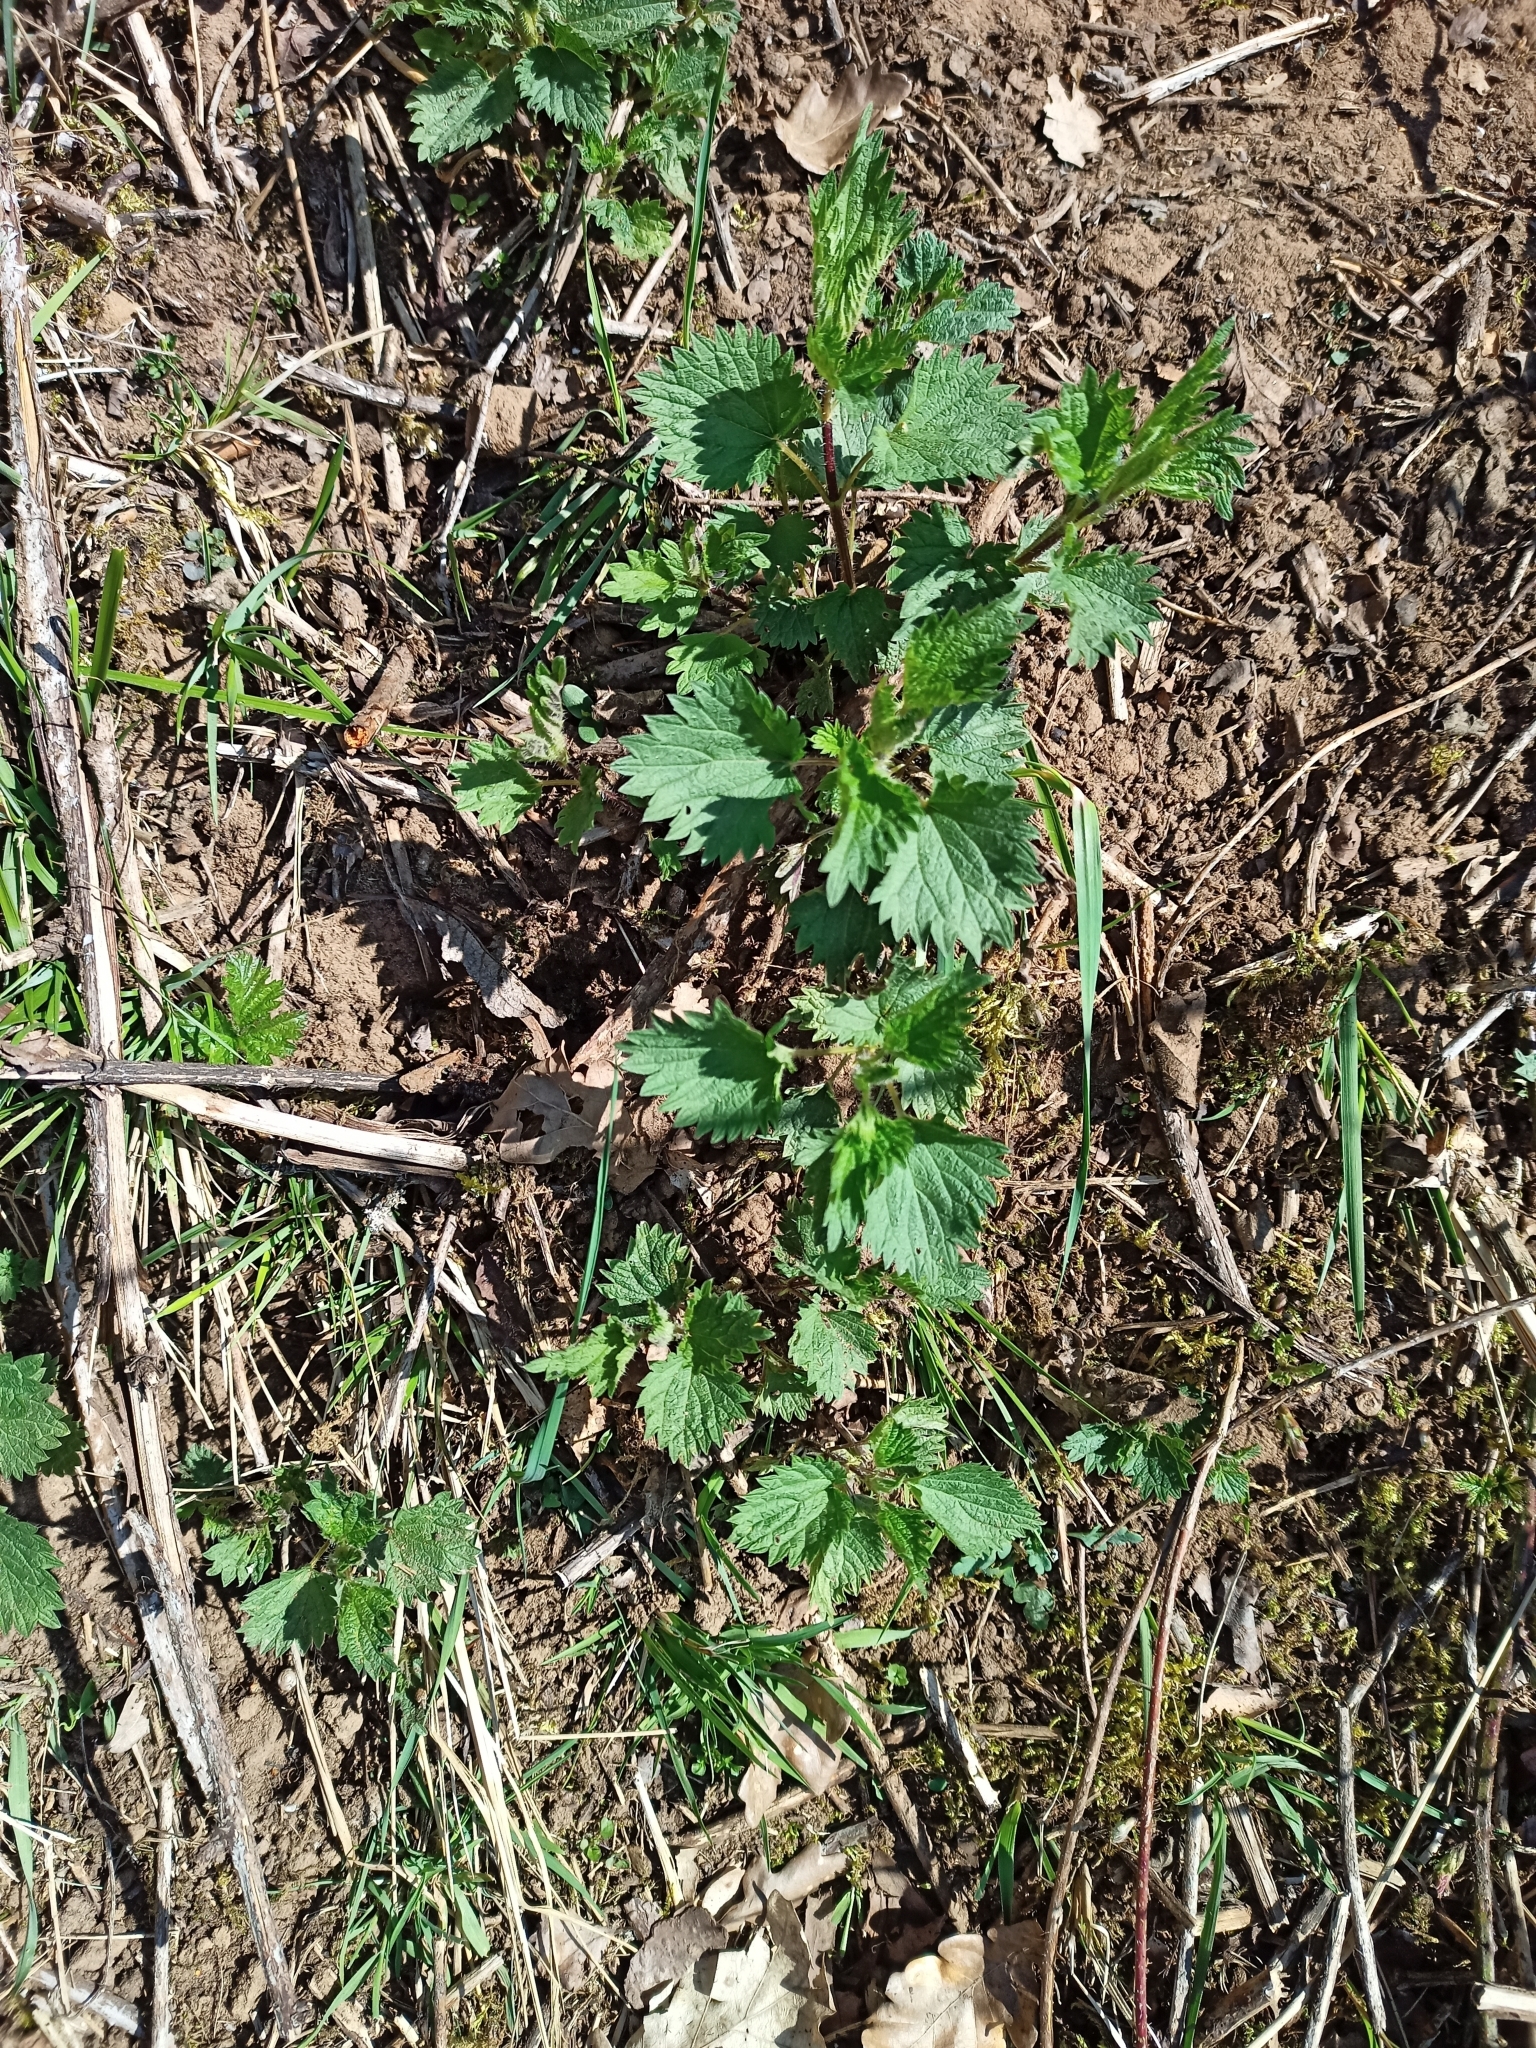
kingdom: Plantae
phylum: Tracheophyta
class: Magnoliopsida
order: Rosales
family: Urticaceae
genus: Urtica
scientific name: Urtica dioica
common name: Common nettle
